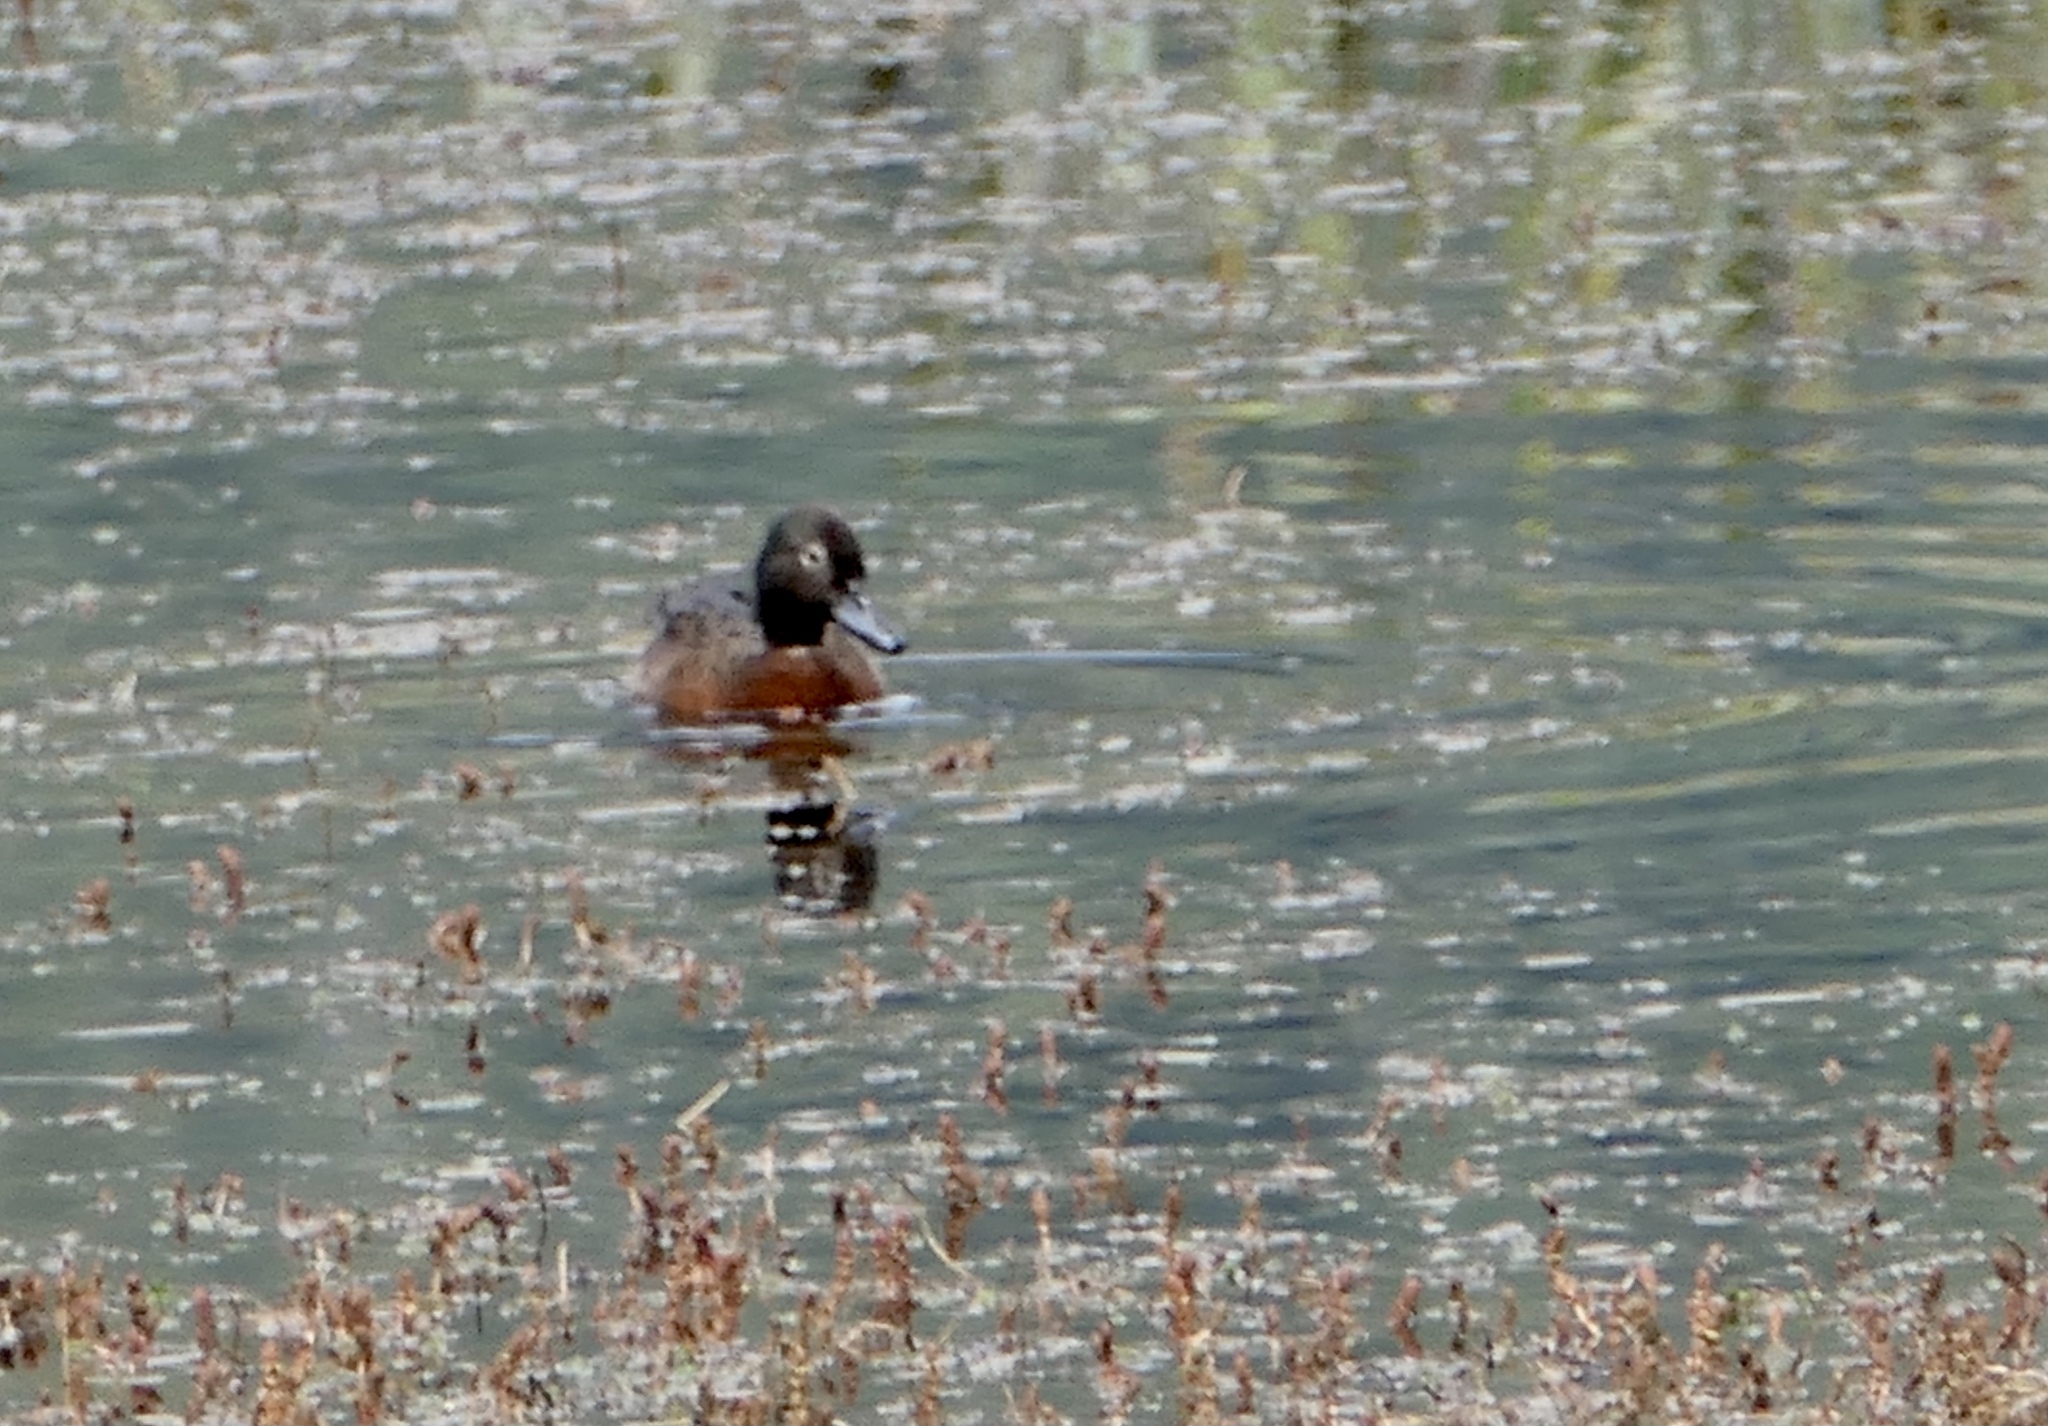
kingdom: Animalia
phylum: Chordata
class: Aves
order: Anseriformes
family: Anatidae
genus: Anas
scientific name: Anas chlorotis
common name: Brown teal
